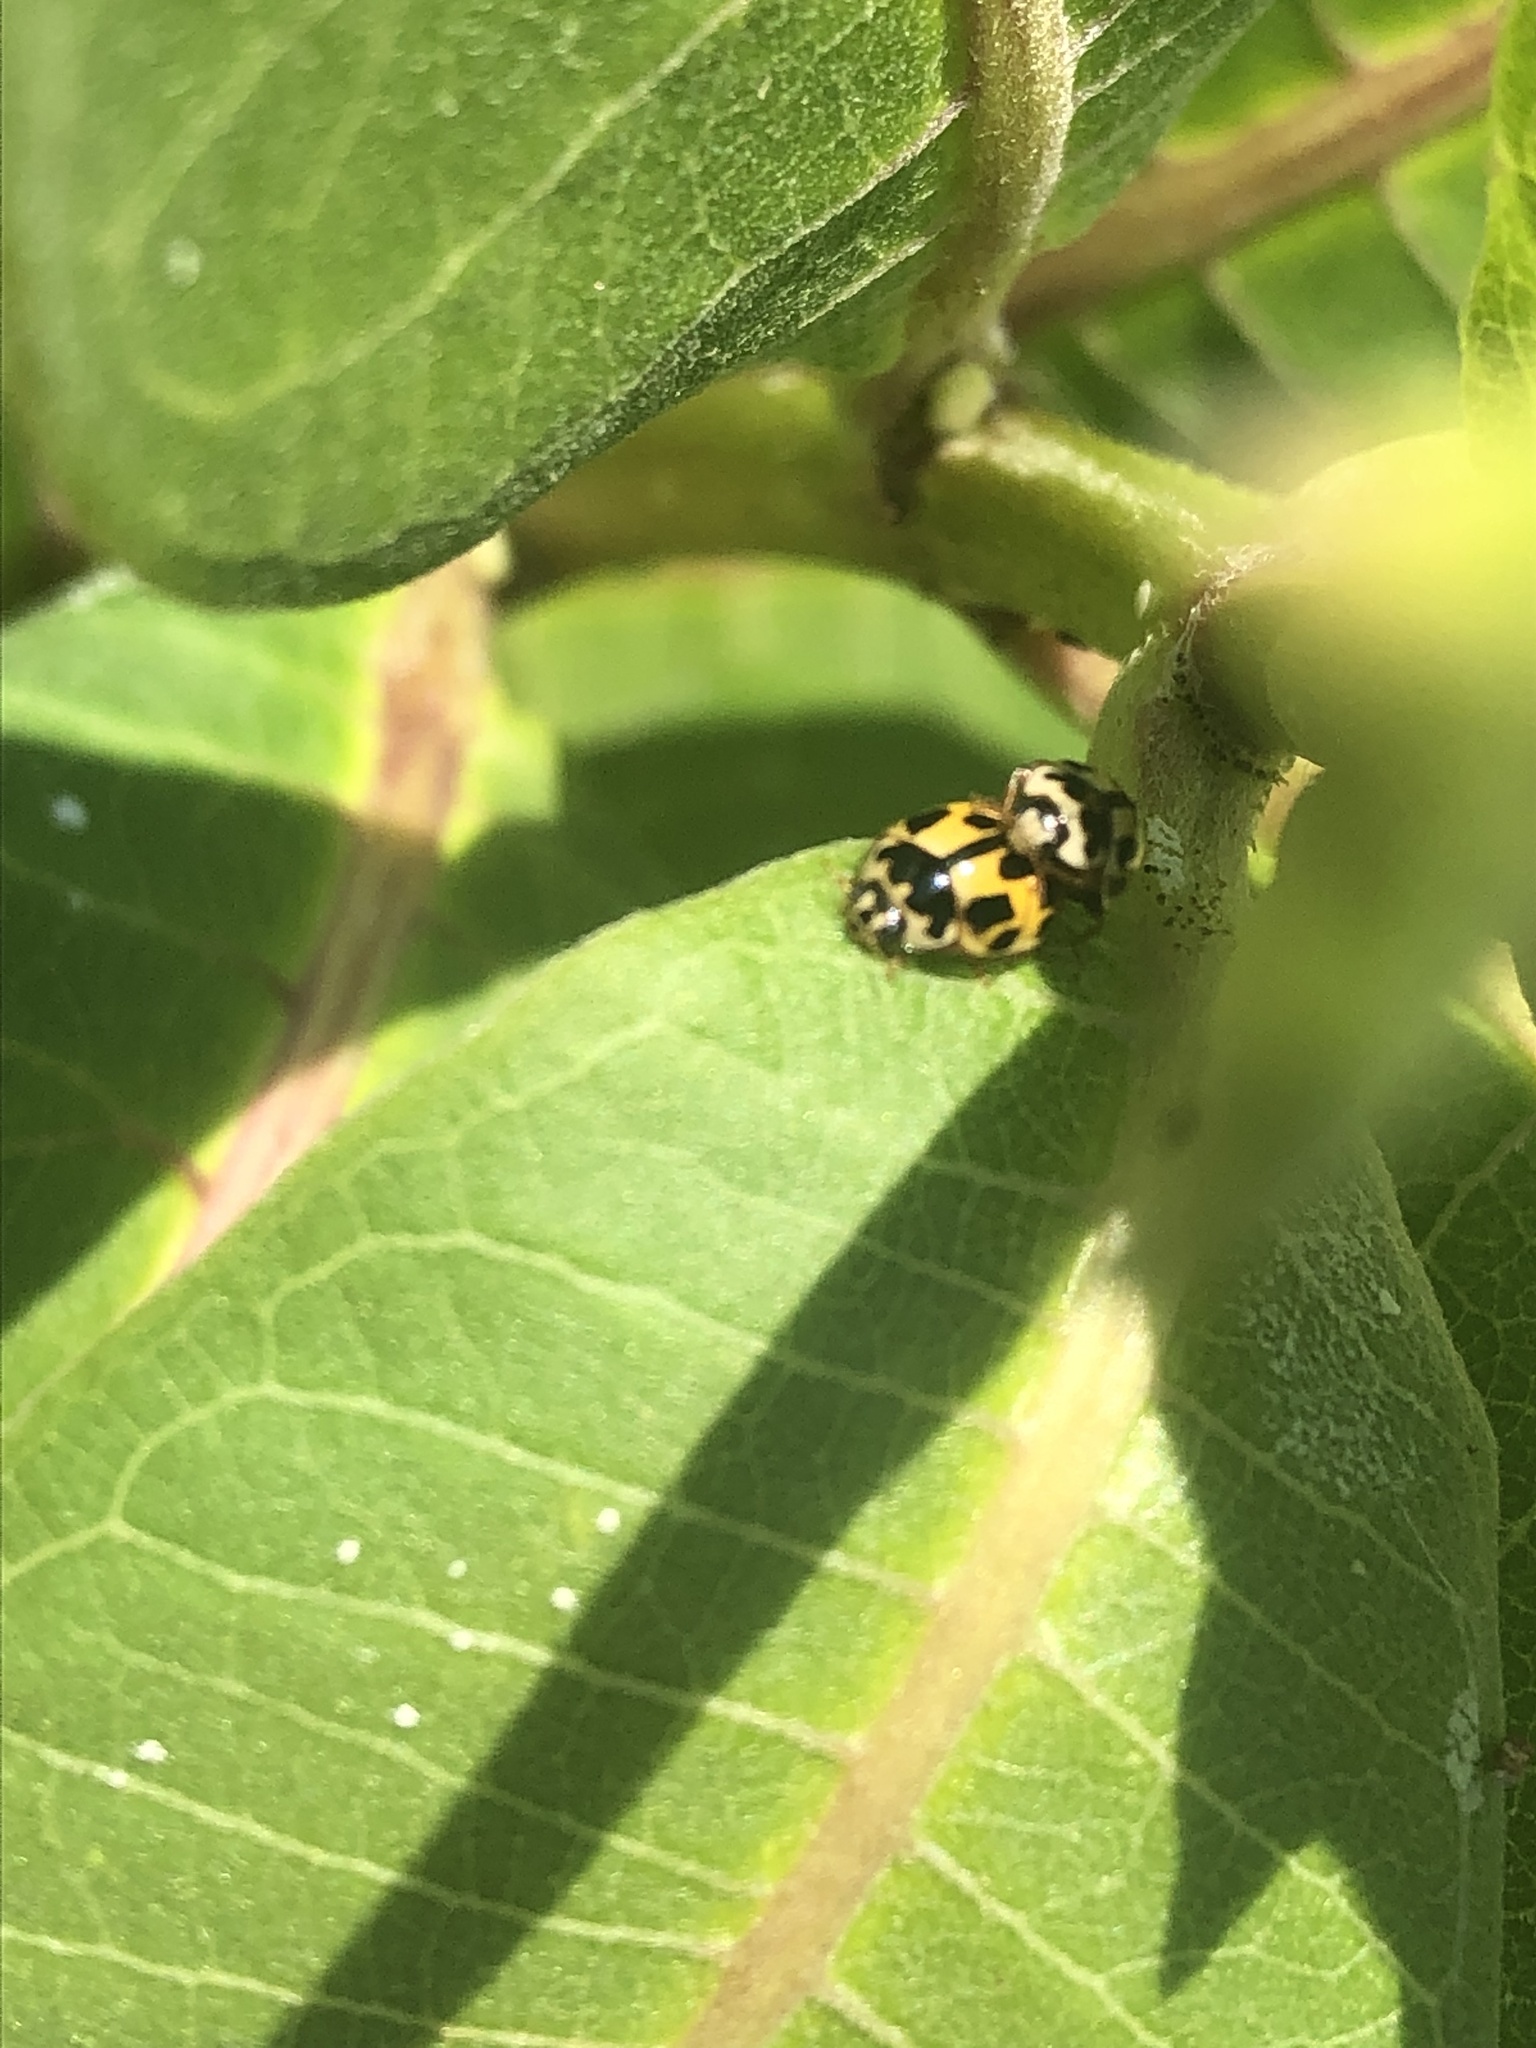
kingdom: Animalia
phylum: Arthropoda
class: Insecta
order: Coleoptera
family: Coccinellidae
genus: Propylaea
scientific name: Propylaea quatuordecimpunctata
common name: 14-spotted ladybird beetle
